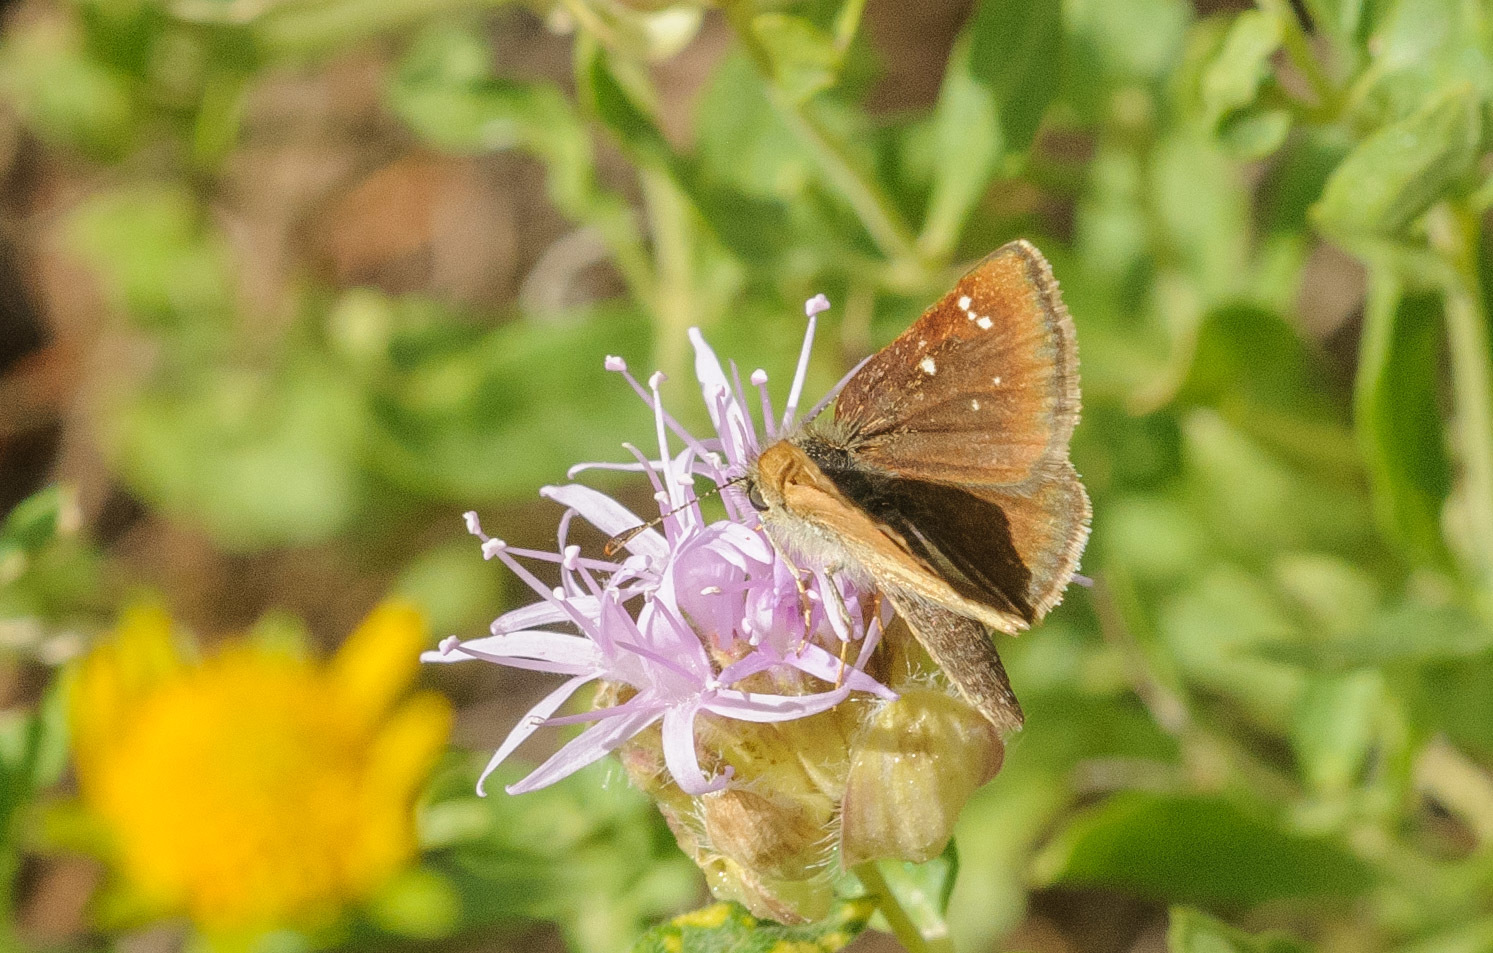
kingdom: Animalia
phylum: Arthropoda
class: Insecta
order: Lepidoptera
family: Hesperiidae
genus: Piruna
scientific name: Piruna pirus
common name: Russet skipperling
